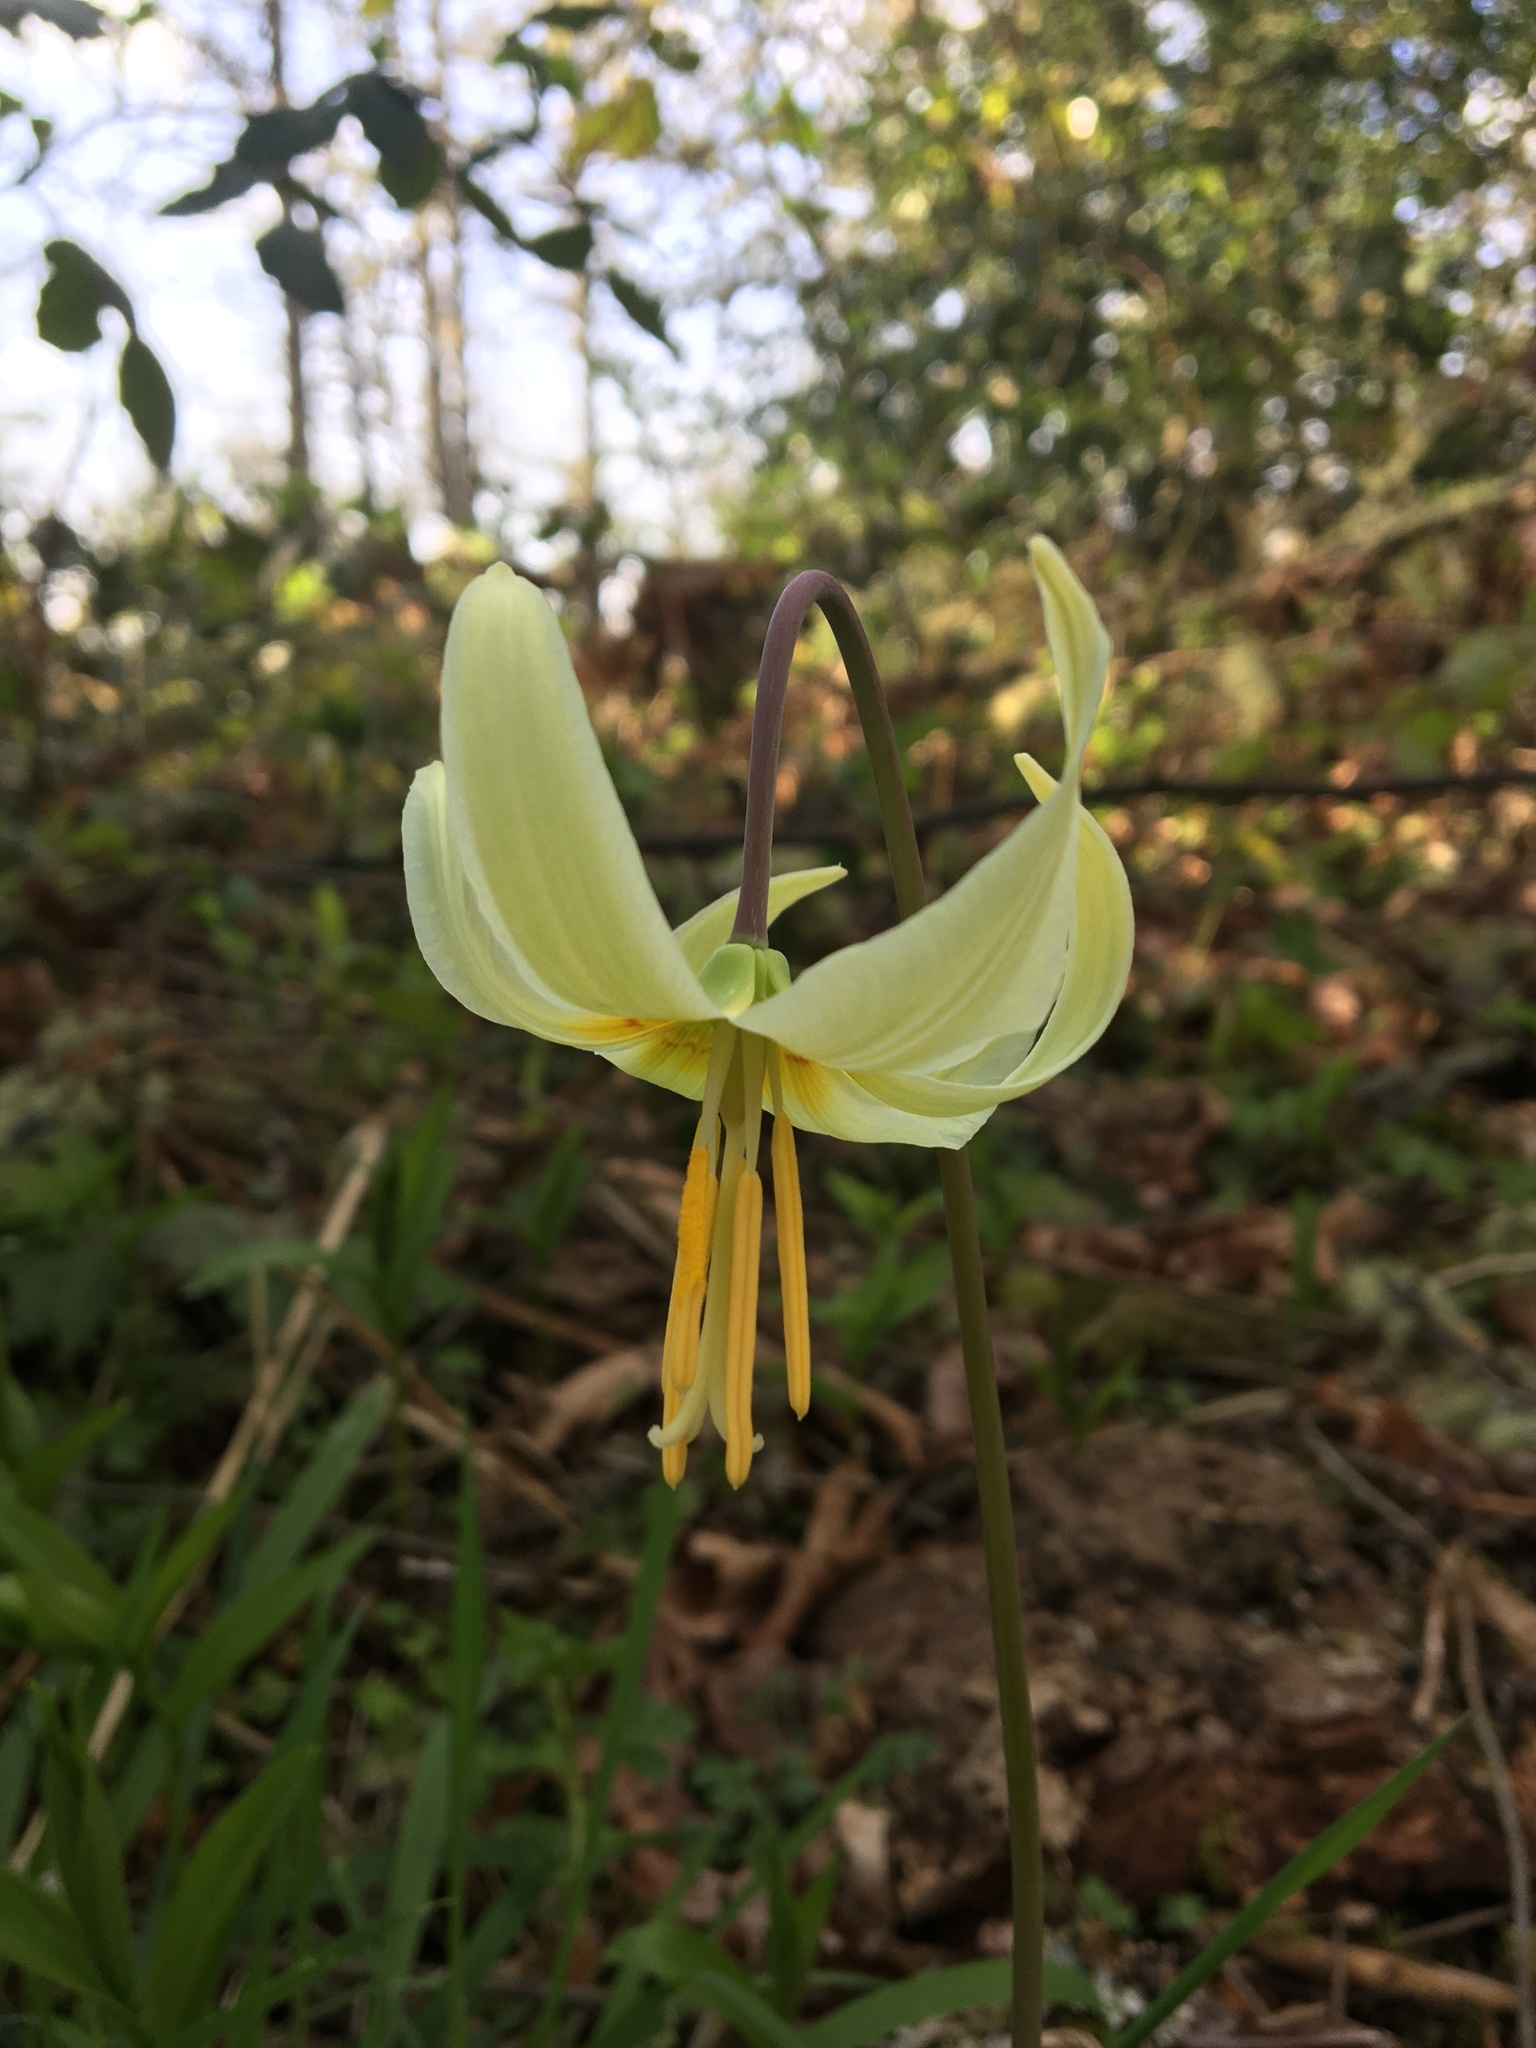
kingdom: Plantae
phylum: Tracheophyta
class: Liliopsida
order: Liliales
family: Liliaceae
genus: Erythronium
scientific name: Erythronium oregonum
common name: Giant adder's-tongue
